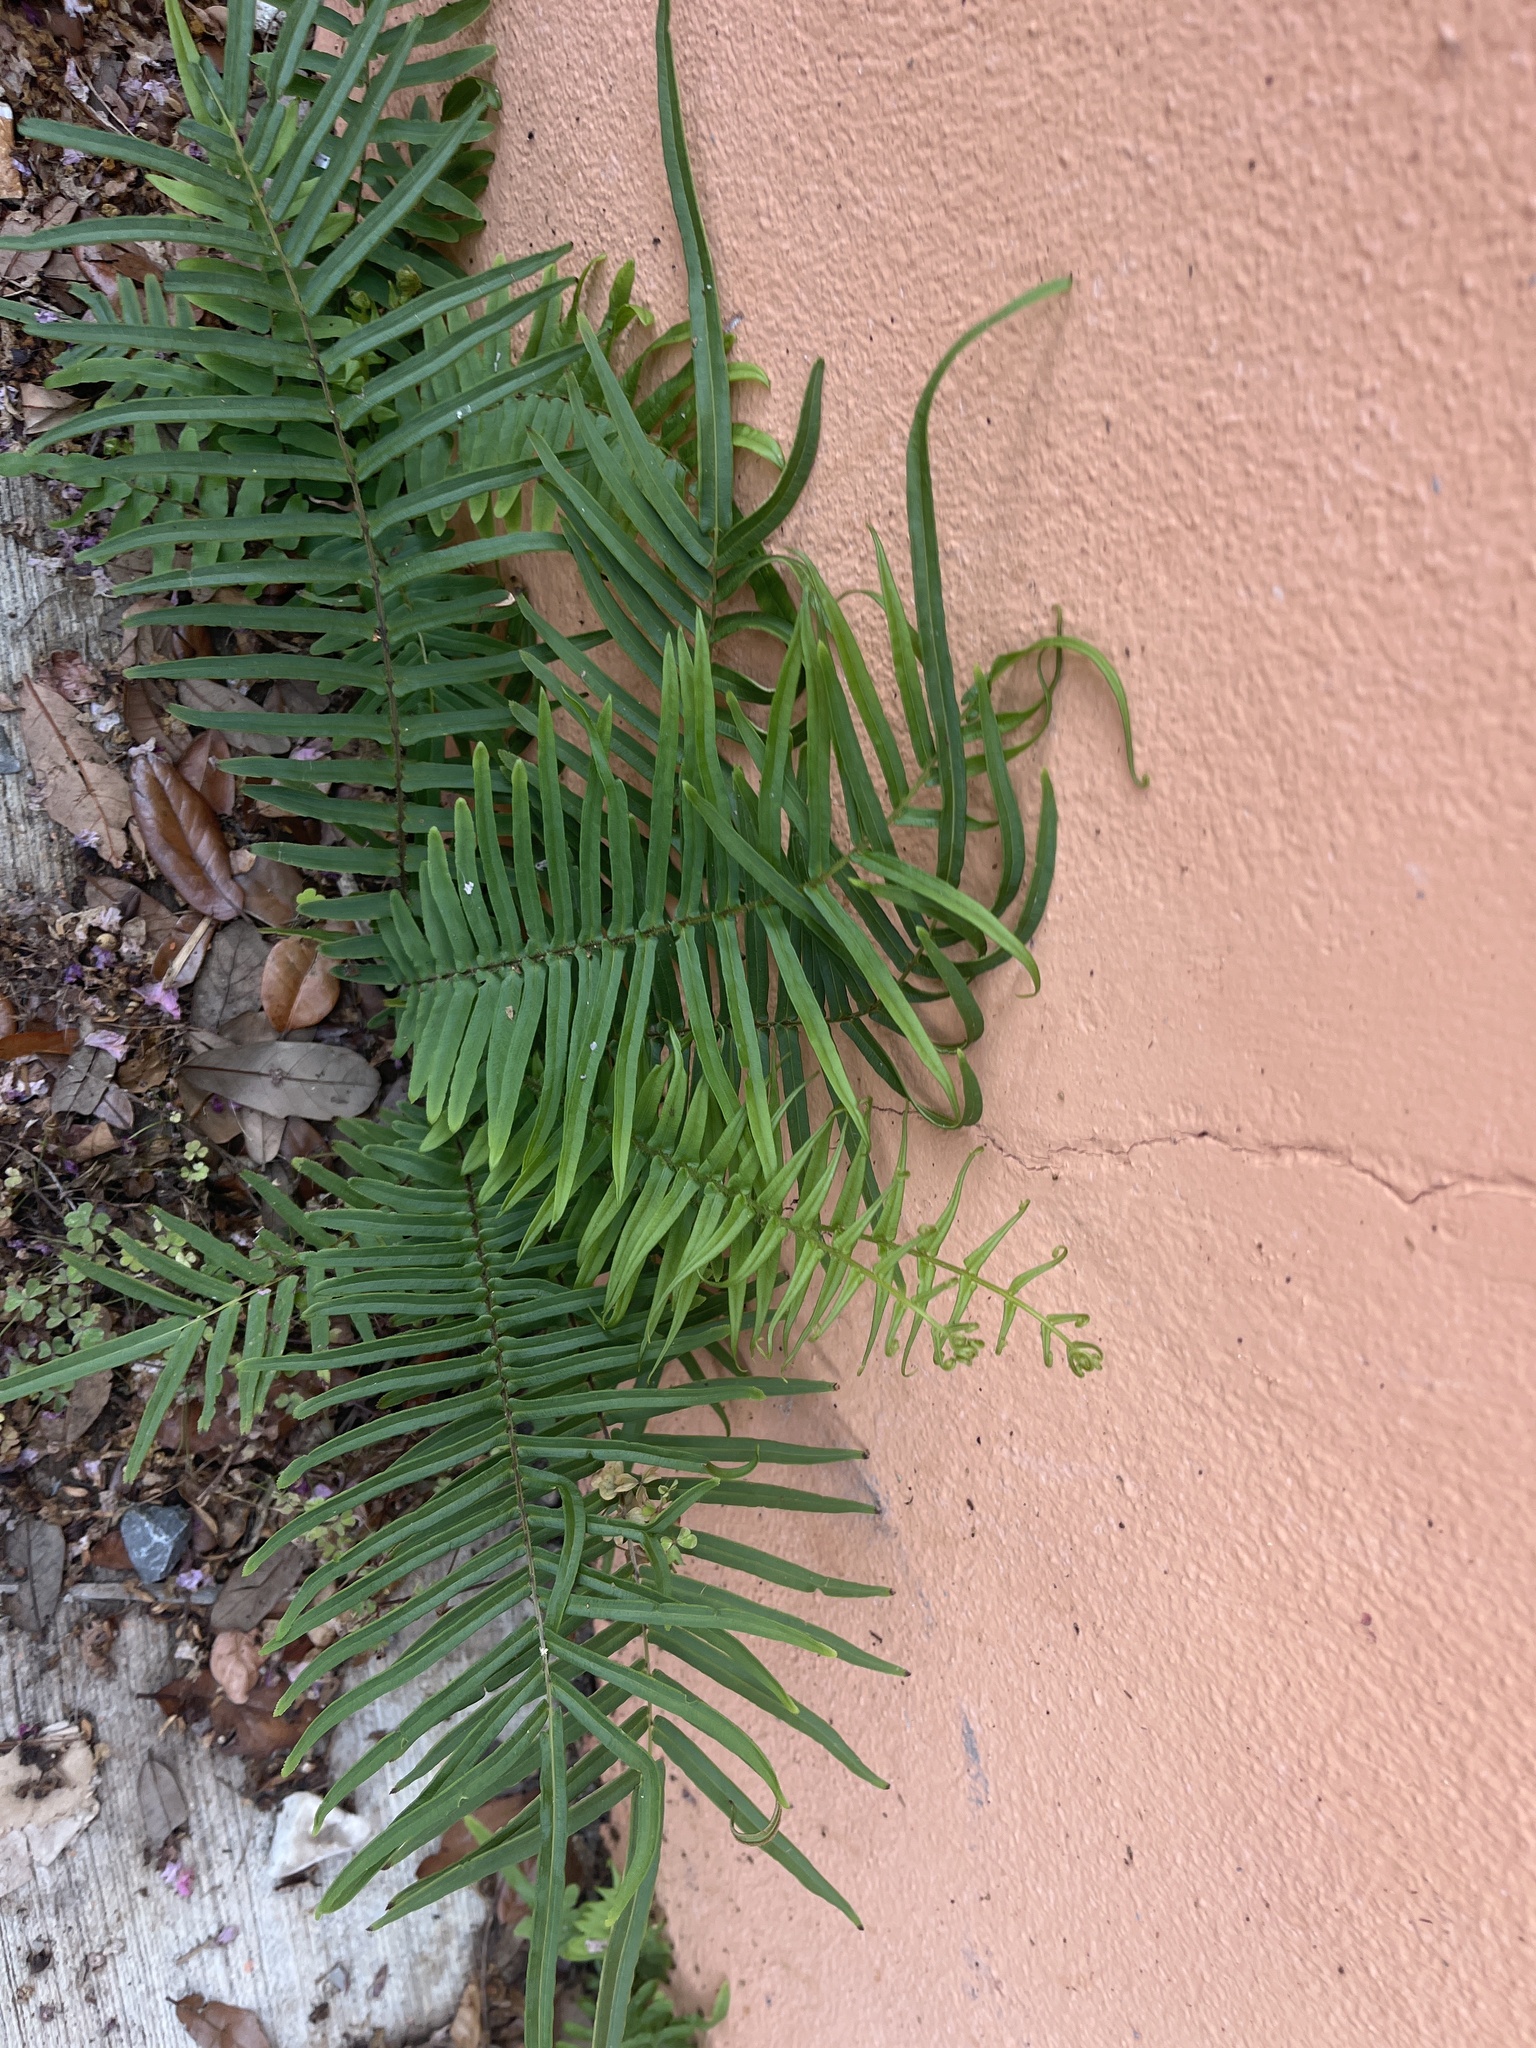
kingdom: Plantae
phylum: Tracheophyta
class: Polypodiopsida
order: Polypodiales
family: Pteridaceae
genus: Pteris
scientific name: Pteris vittata
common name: Ladder brake
